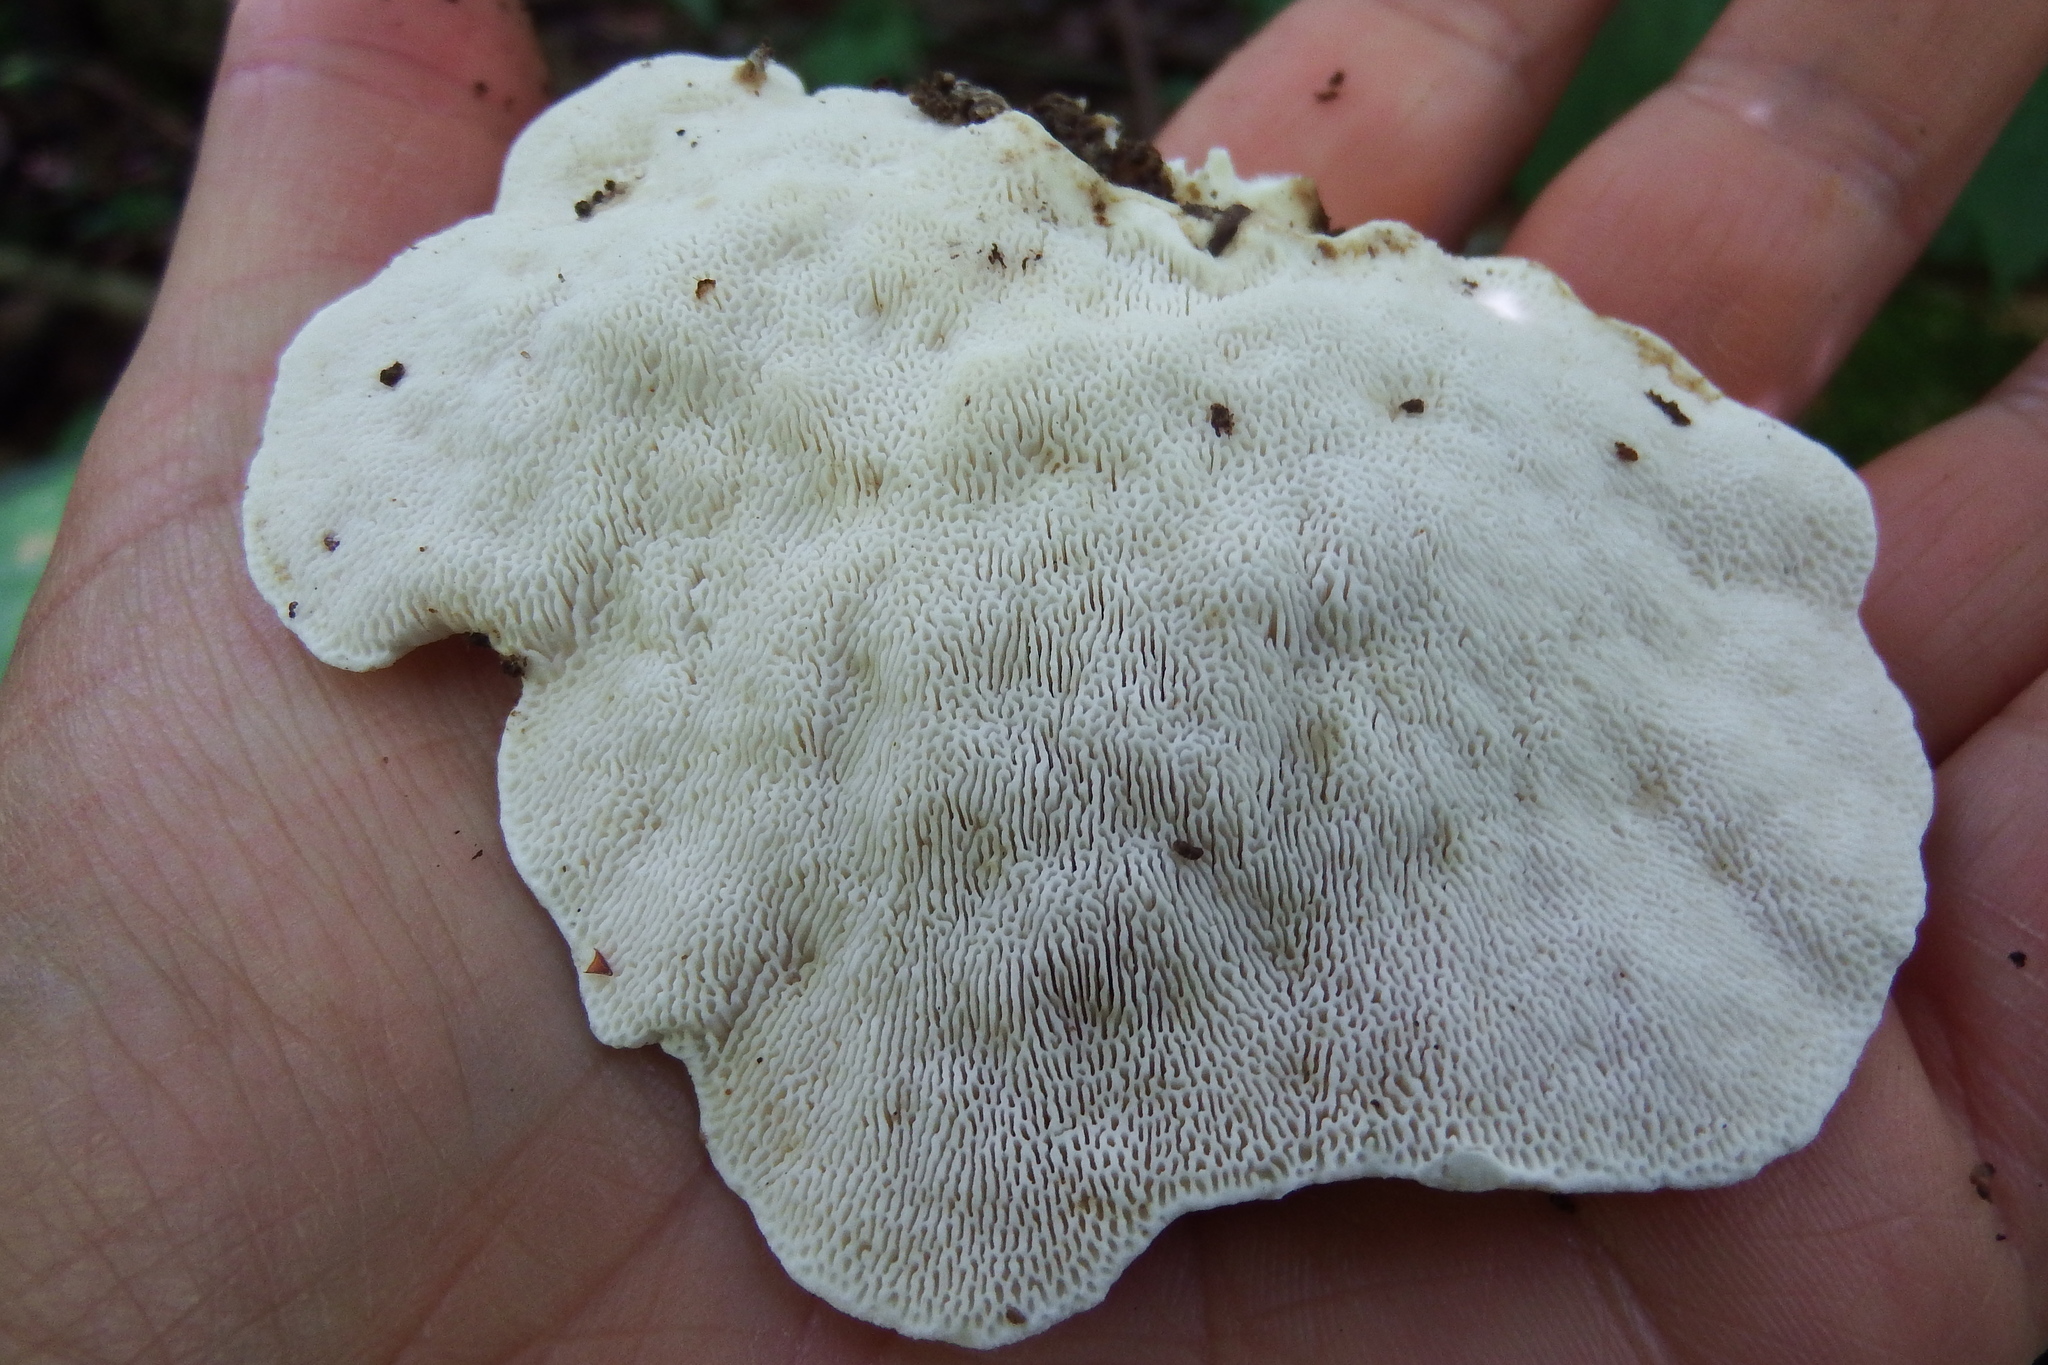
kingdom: Fungi
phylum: Basidiomycota
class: Agaricomycetes
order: Polyporales
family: Polyporaceae
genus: Trametes
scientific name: Trametes gibbosa
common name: Lumpy bracket
